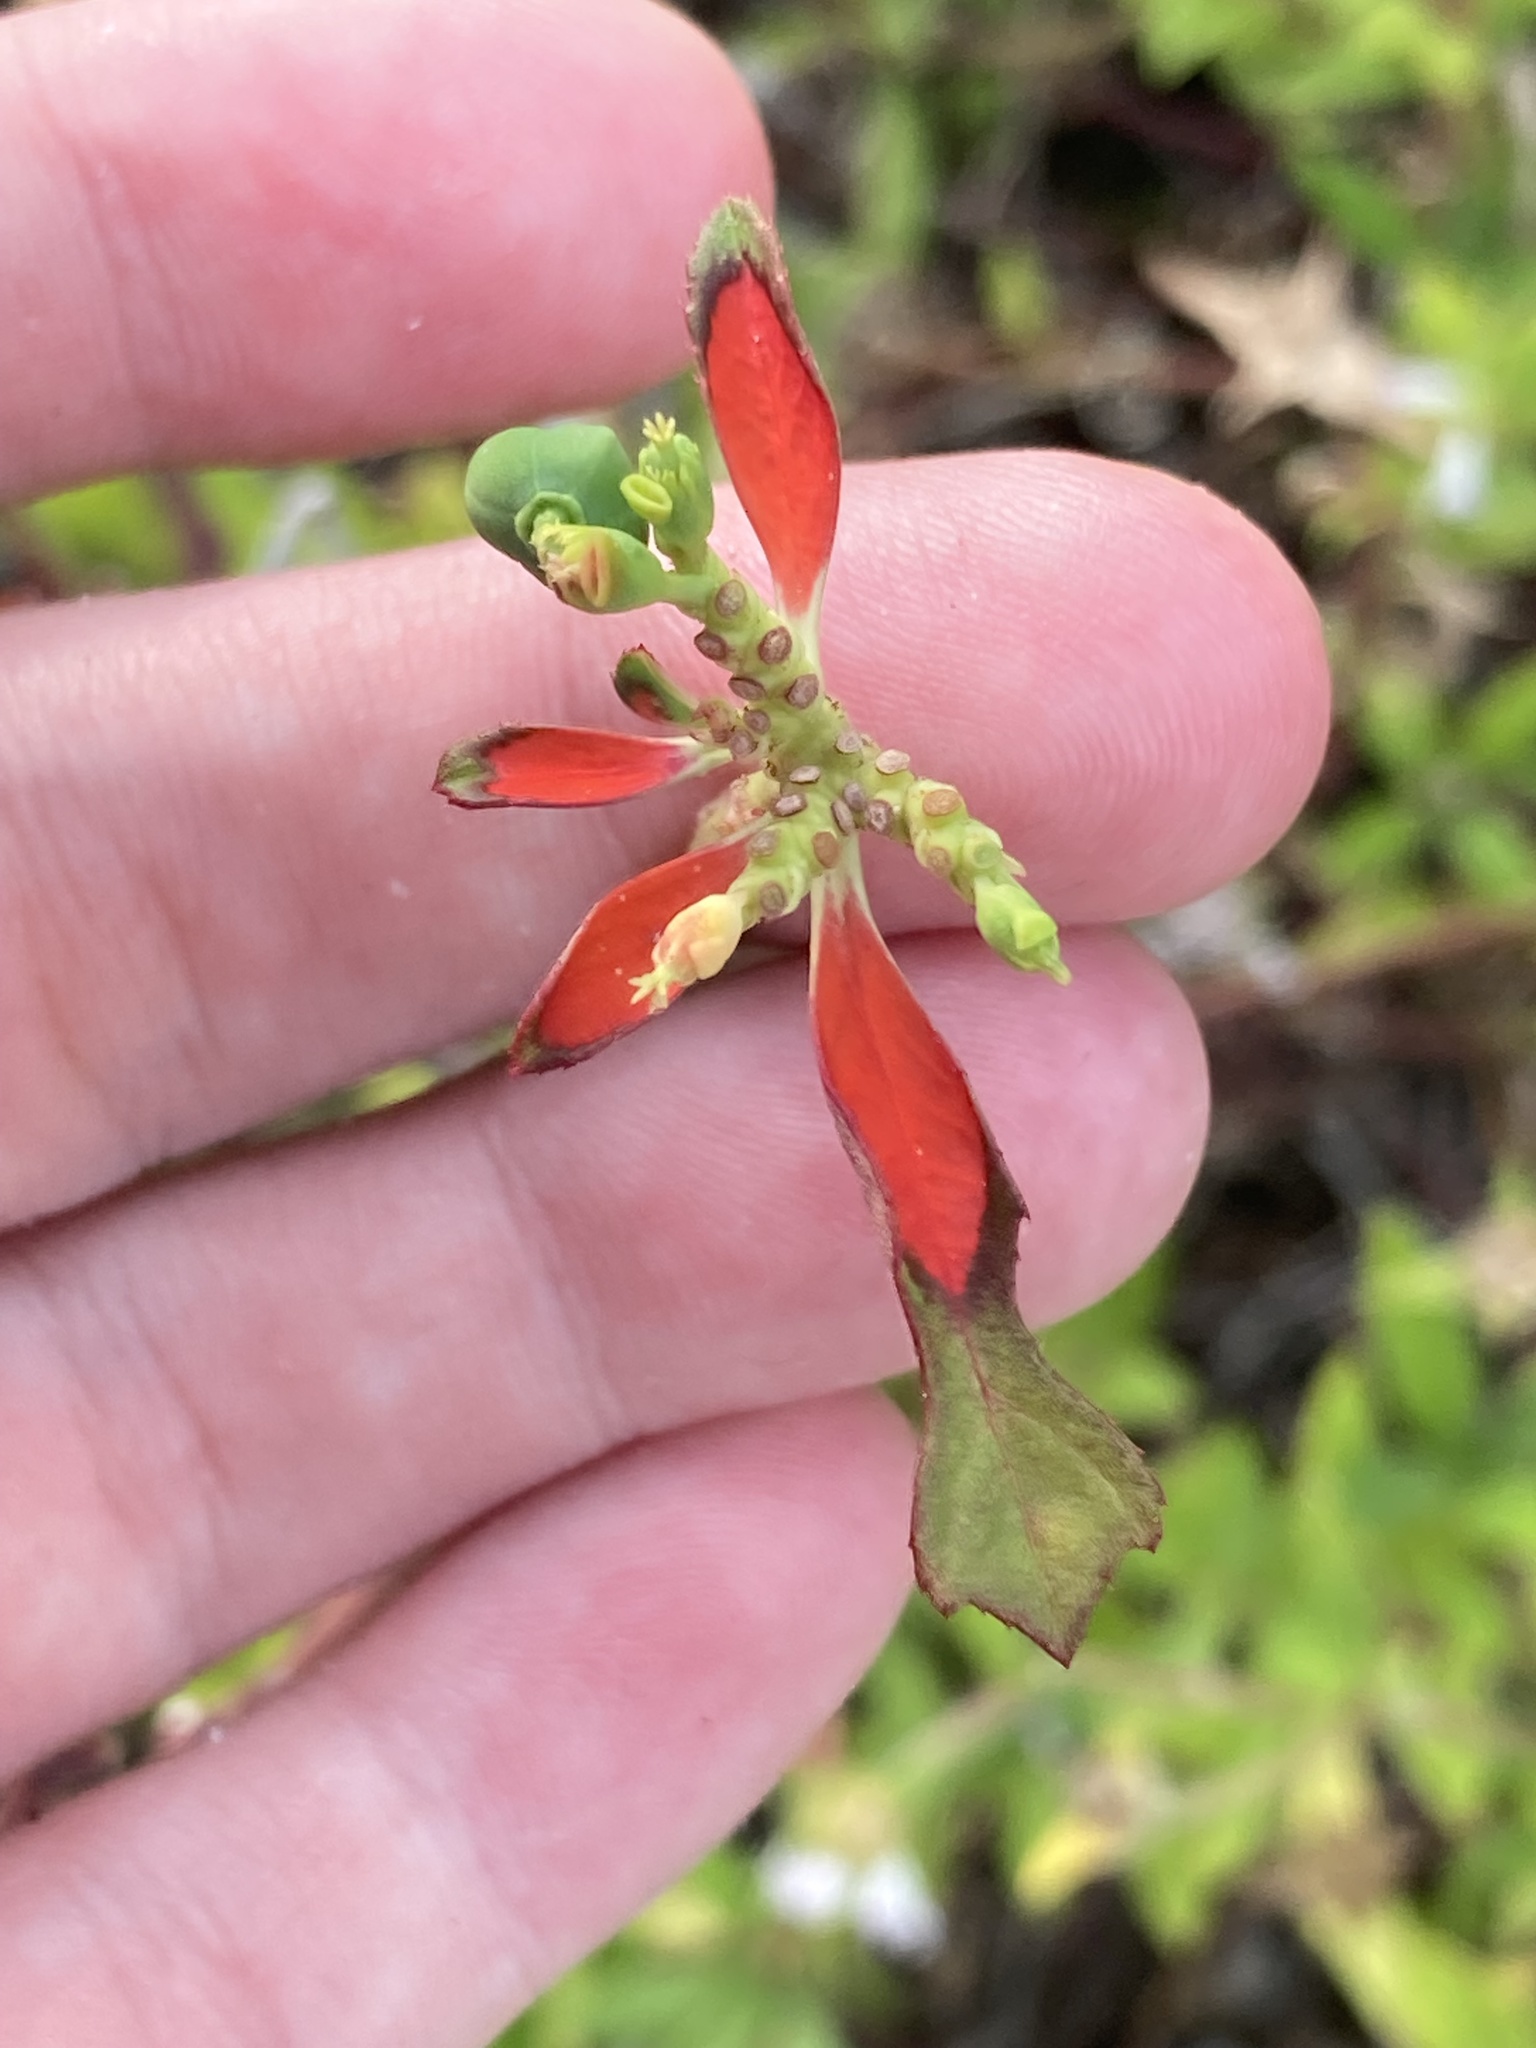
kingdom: Plantae
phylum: Tracheophyta
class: Magnoliopsida
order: Malpighiales
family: Euphorbiaceae
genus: Euphorbia
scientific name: Euphorbia heterophylla
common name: Mexican fireplant
